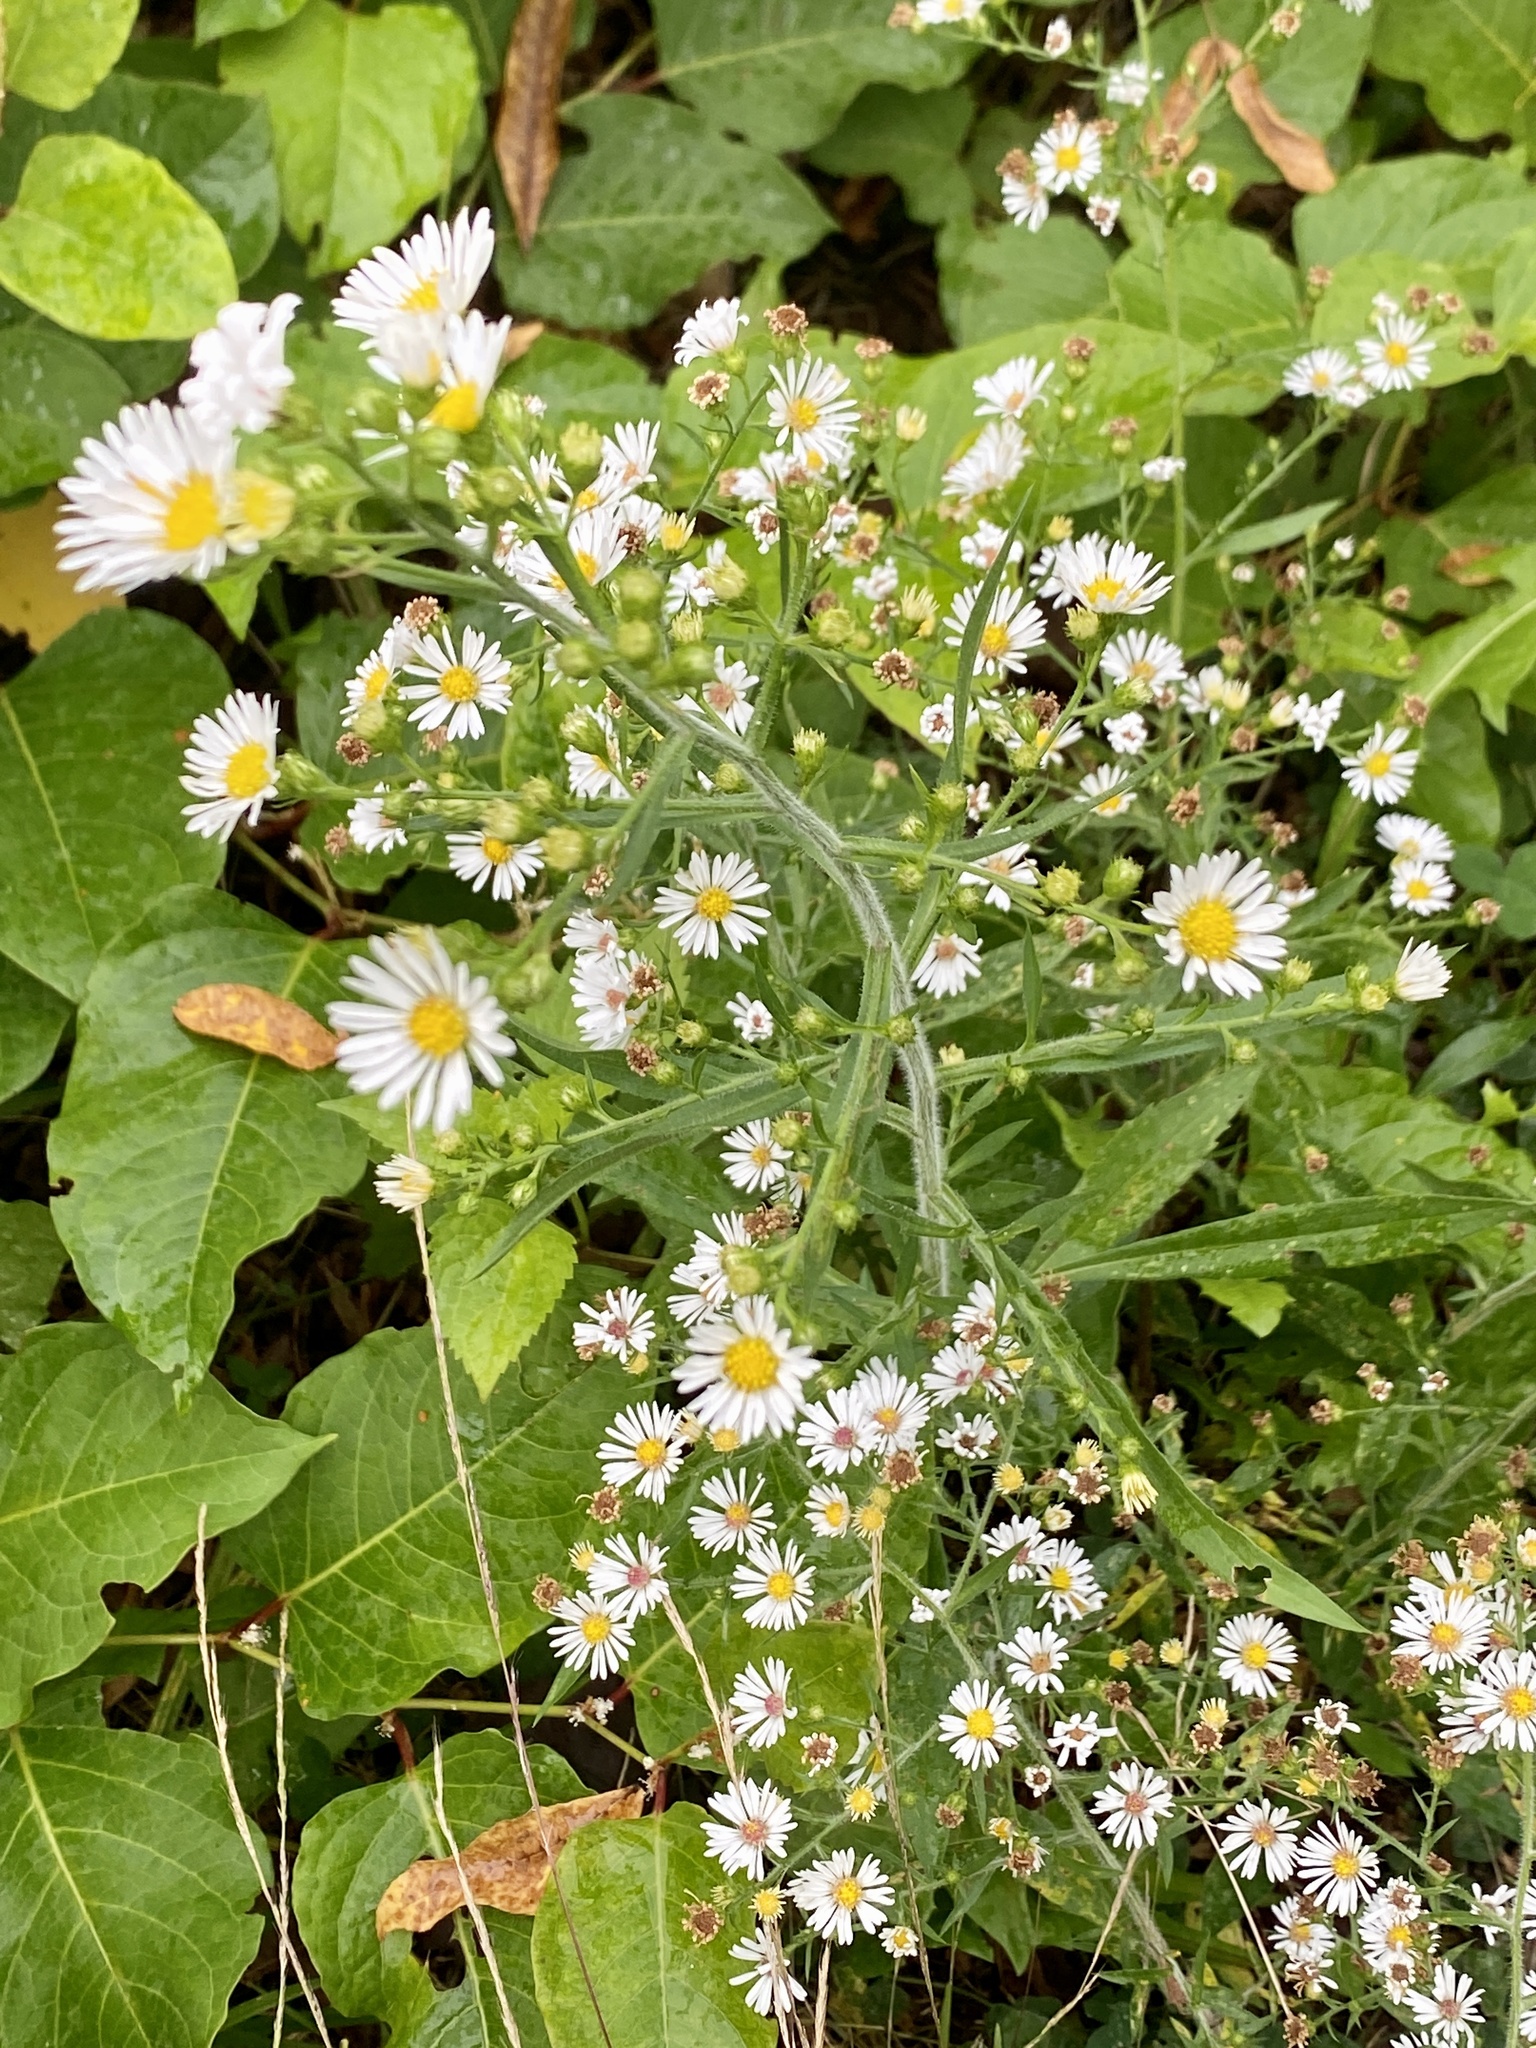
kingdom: Plantae
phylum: Tracheophyta
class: Magnoliopsida
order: Asterales
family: Asteraceae
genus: Symphyotrichum
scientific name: Symphyotrichum pilosum
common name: Awl aster
